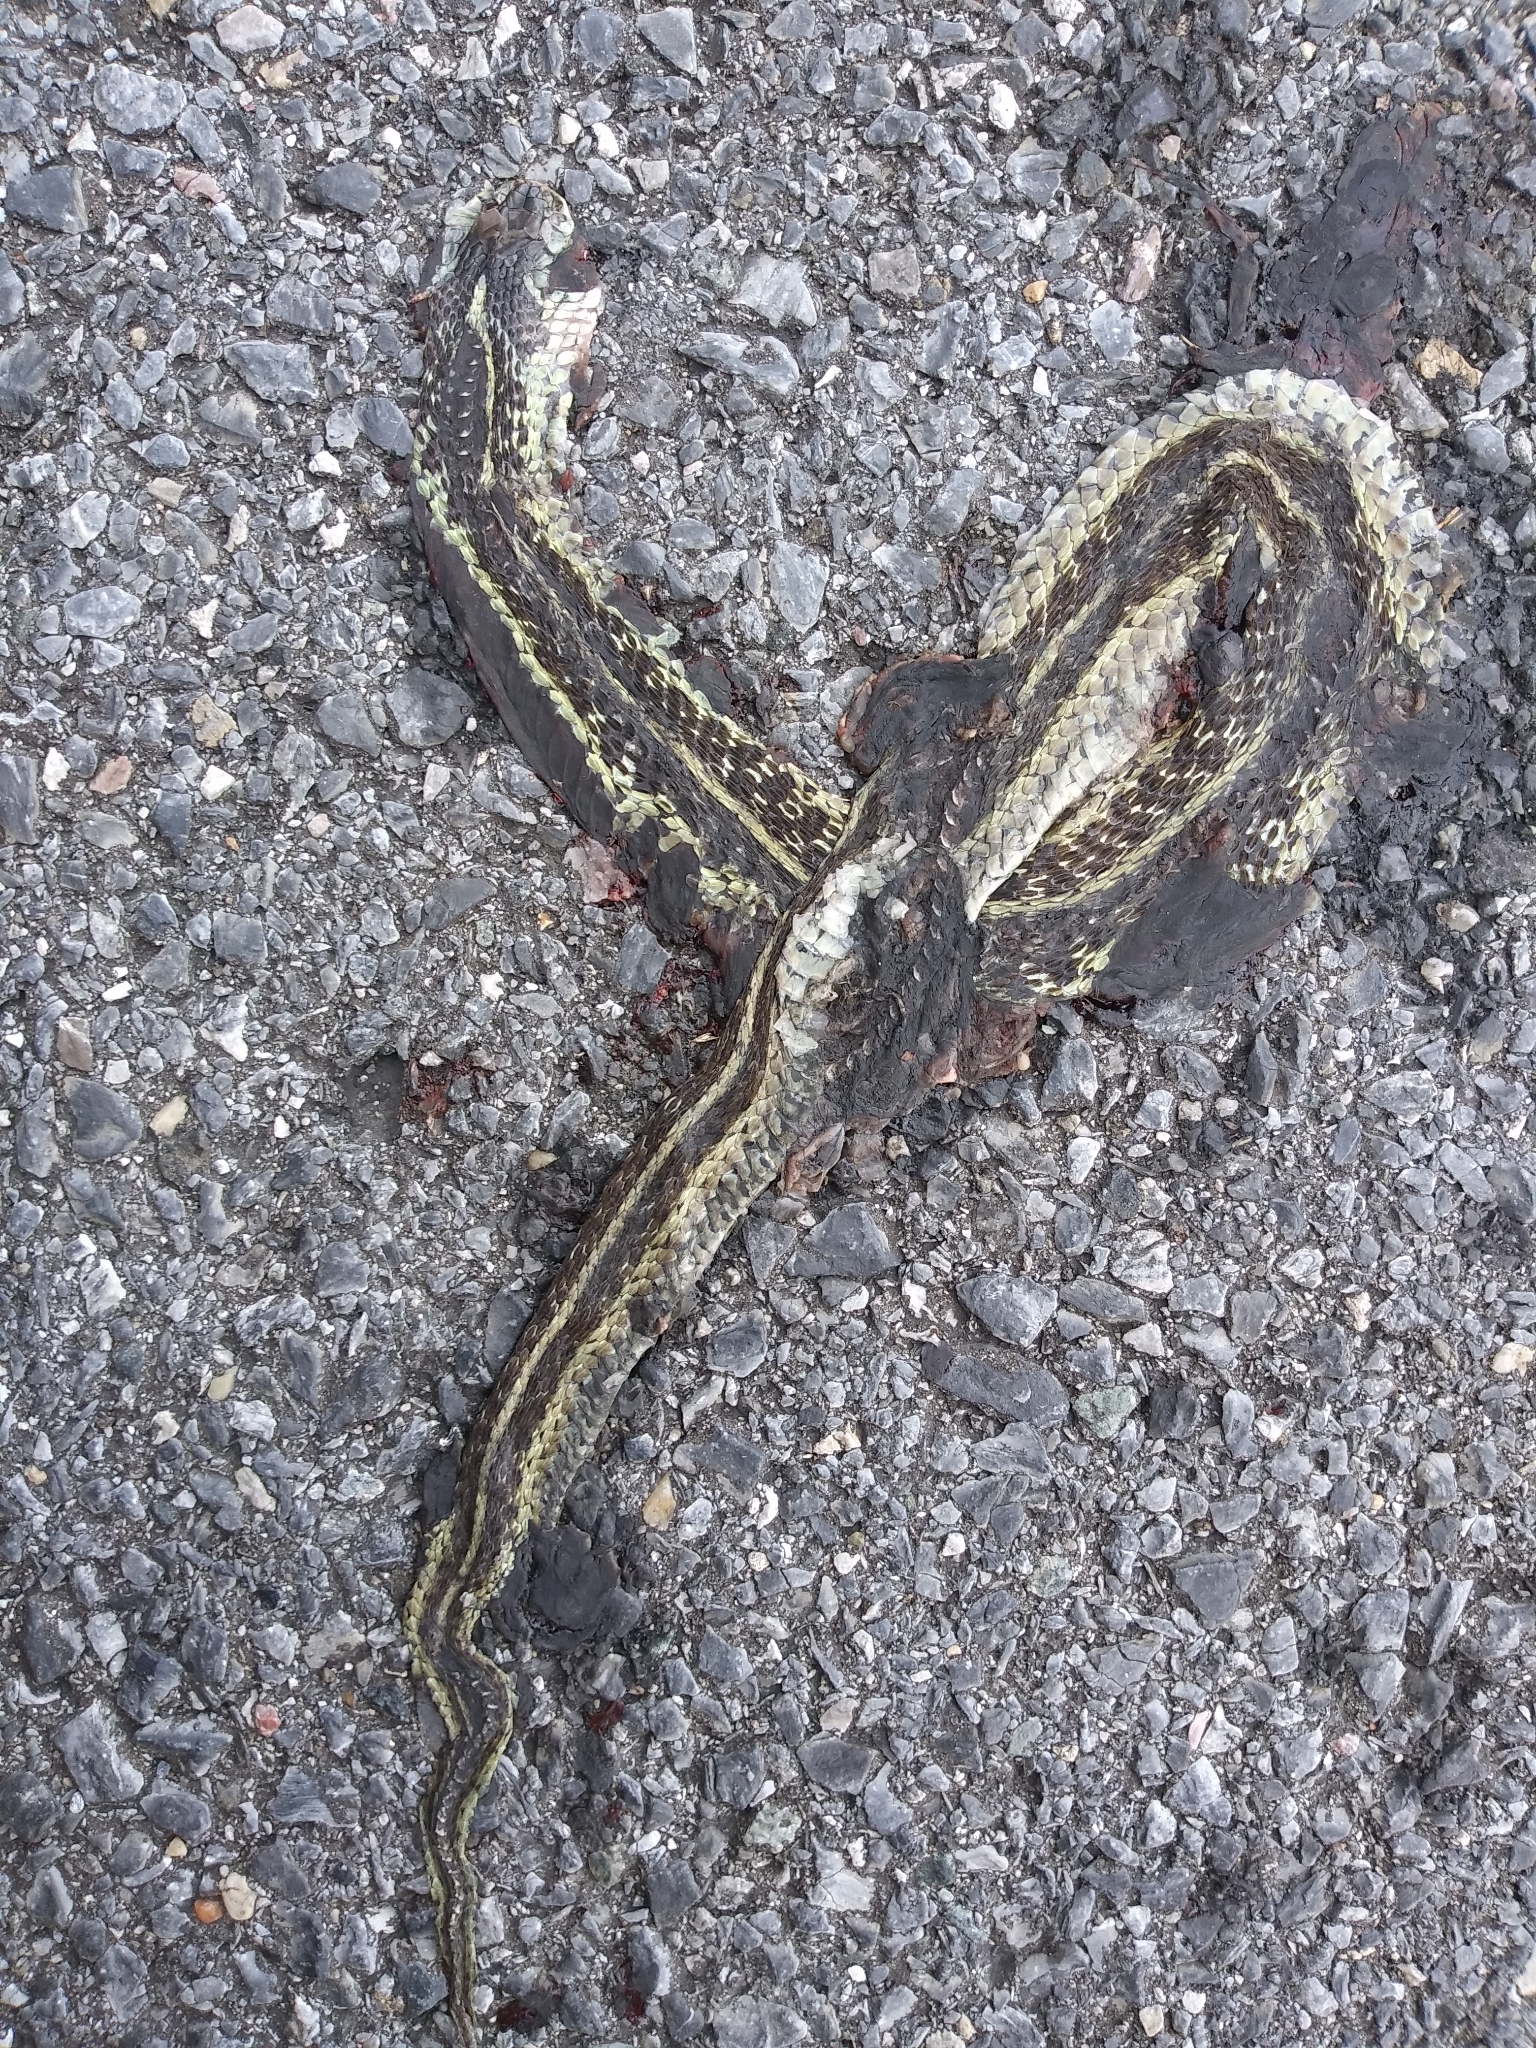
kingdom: Animalia
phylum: Chordata
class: Squamata
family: Colubridae
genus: Thamnophis
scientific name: Thamnophis sirtalis
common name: Common garter snake
